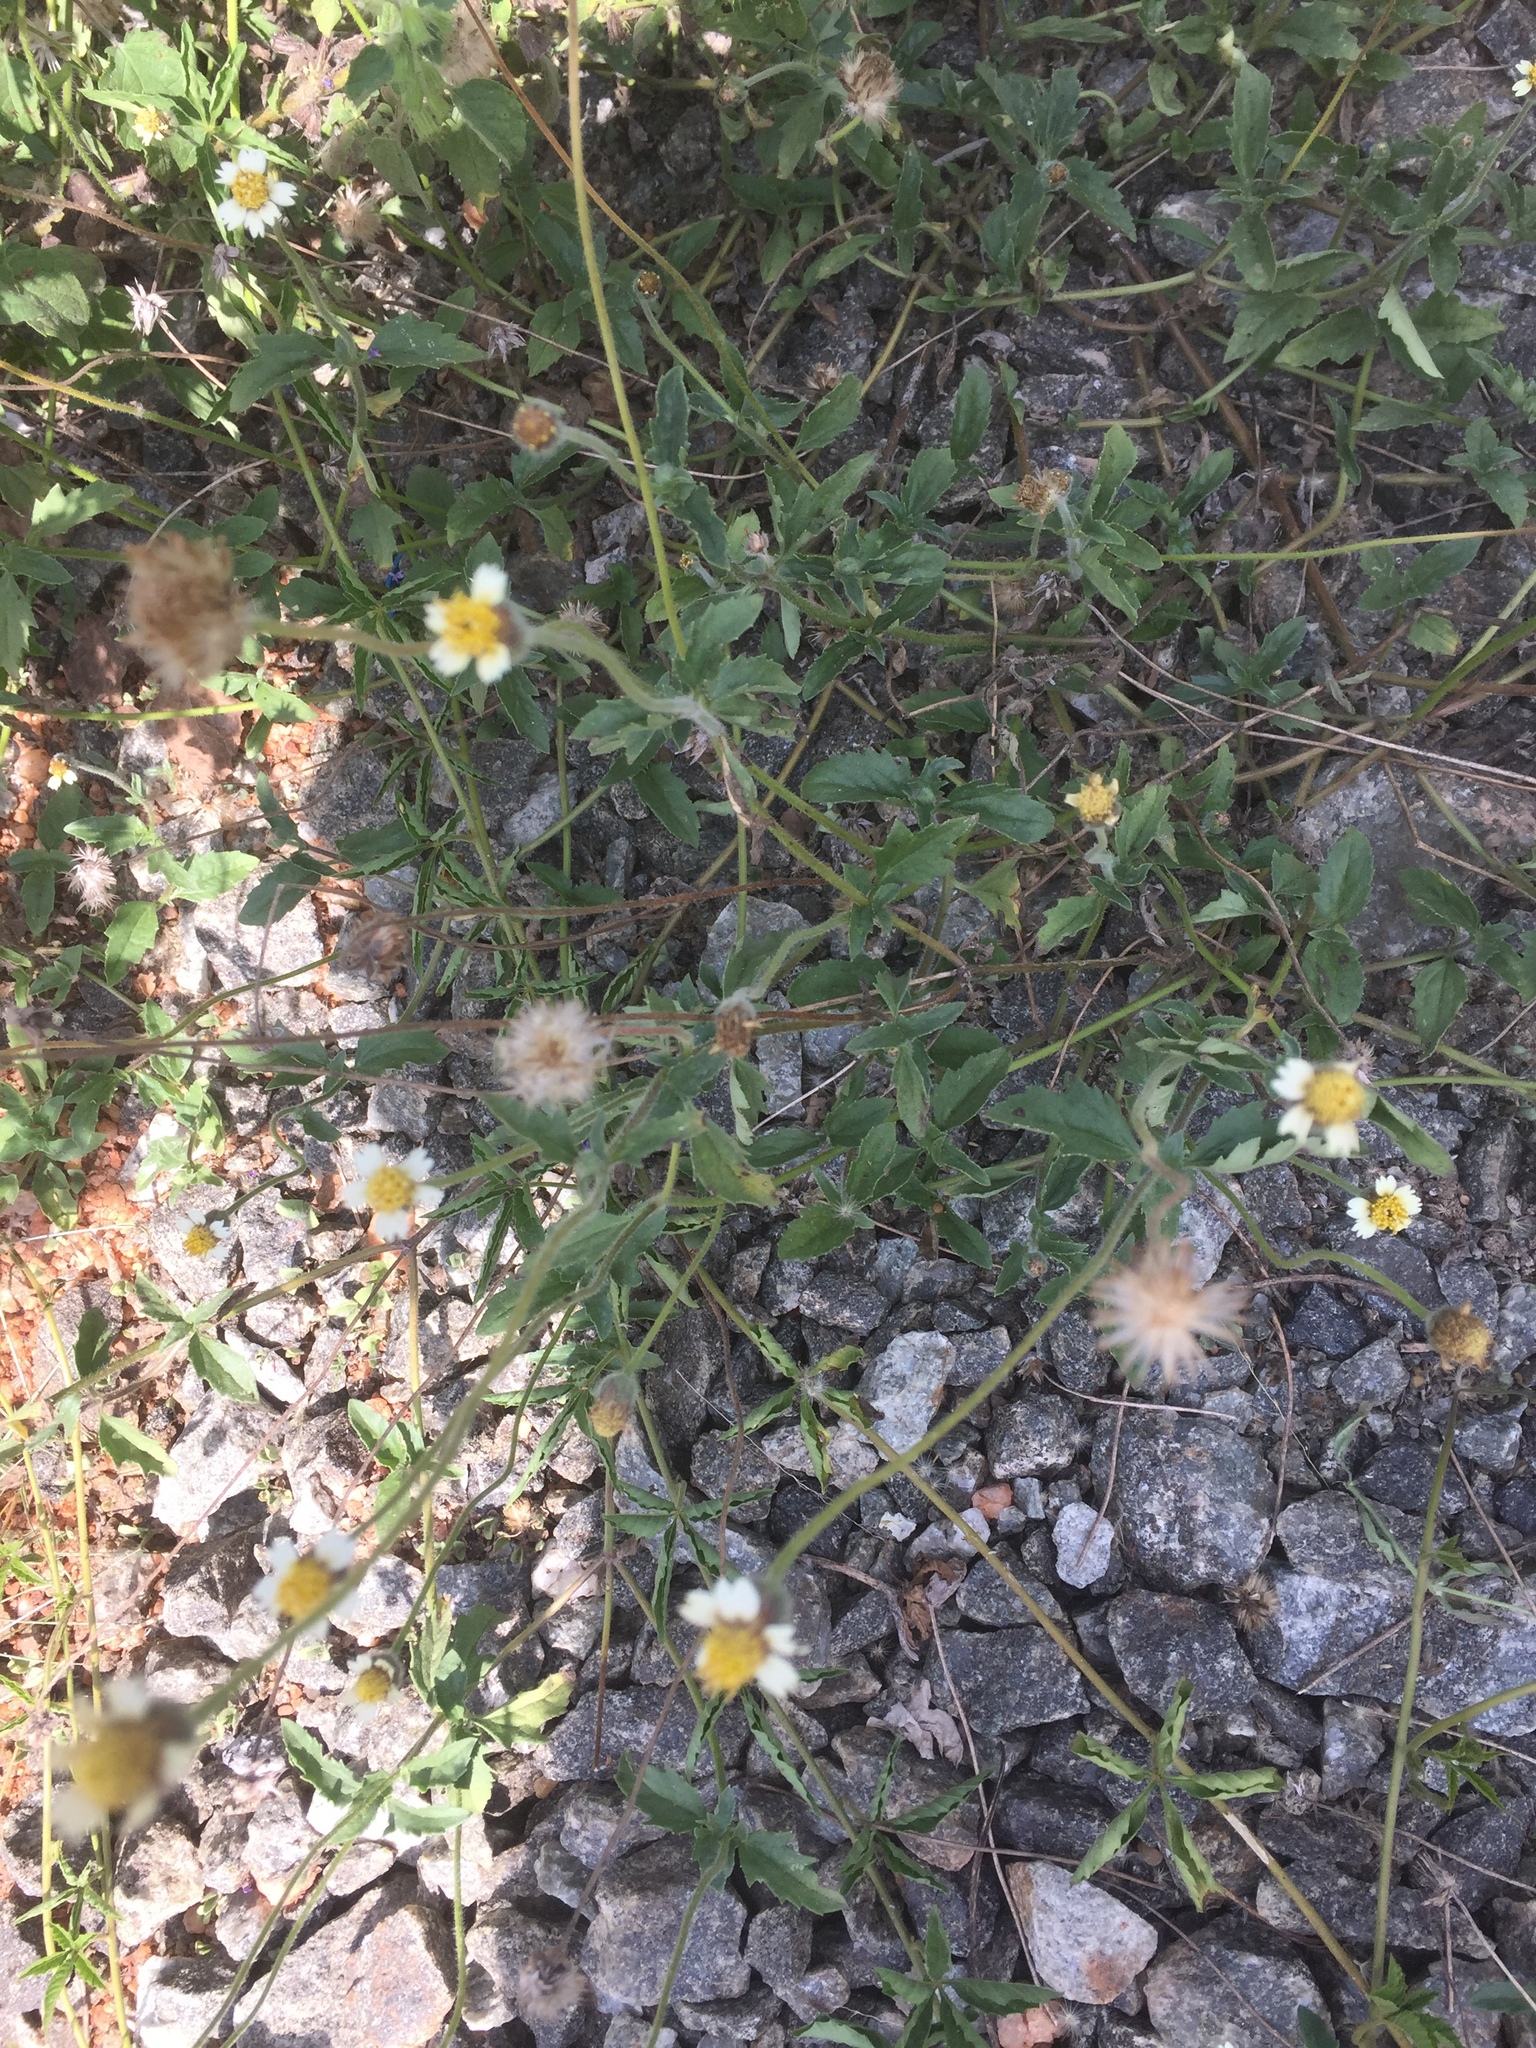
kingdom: Plantae
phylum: Tracheophyta
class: Magnoliopsida
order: Asterales
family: Asteraceae
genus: Tridax
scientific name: Tridax procumbens
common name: Coatbuttons
